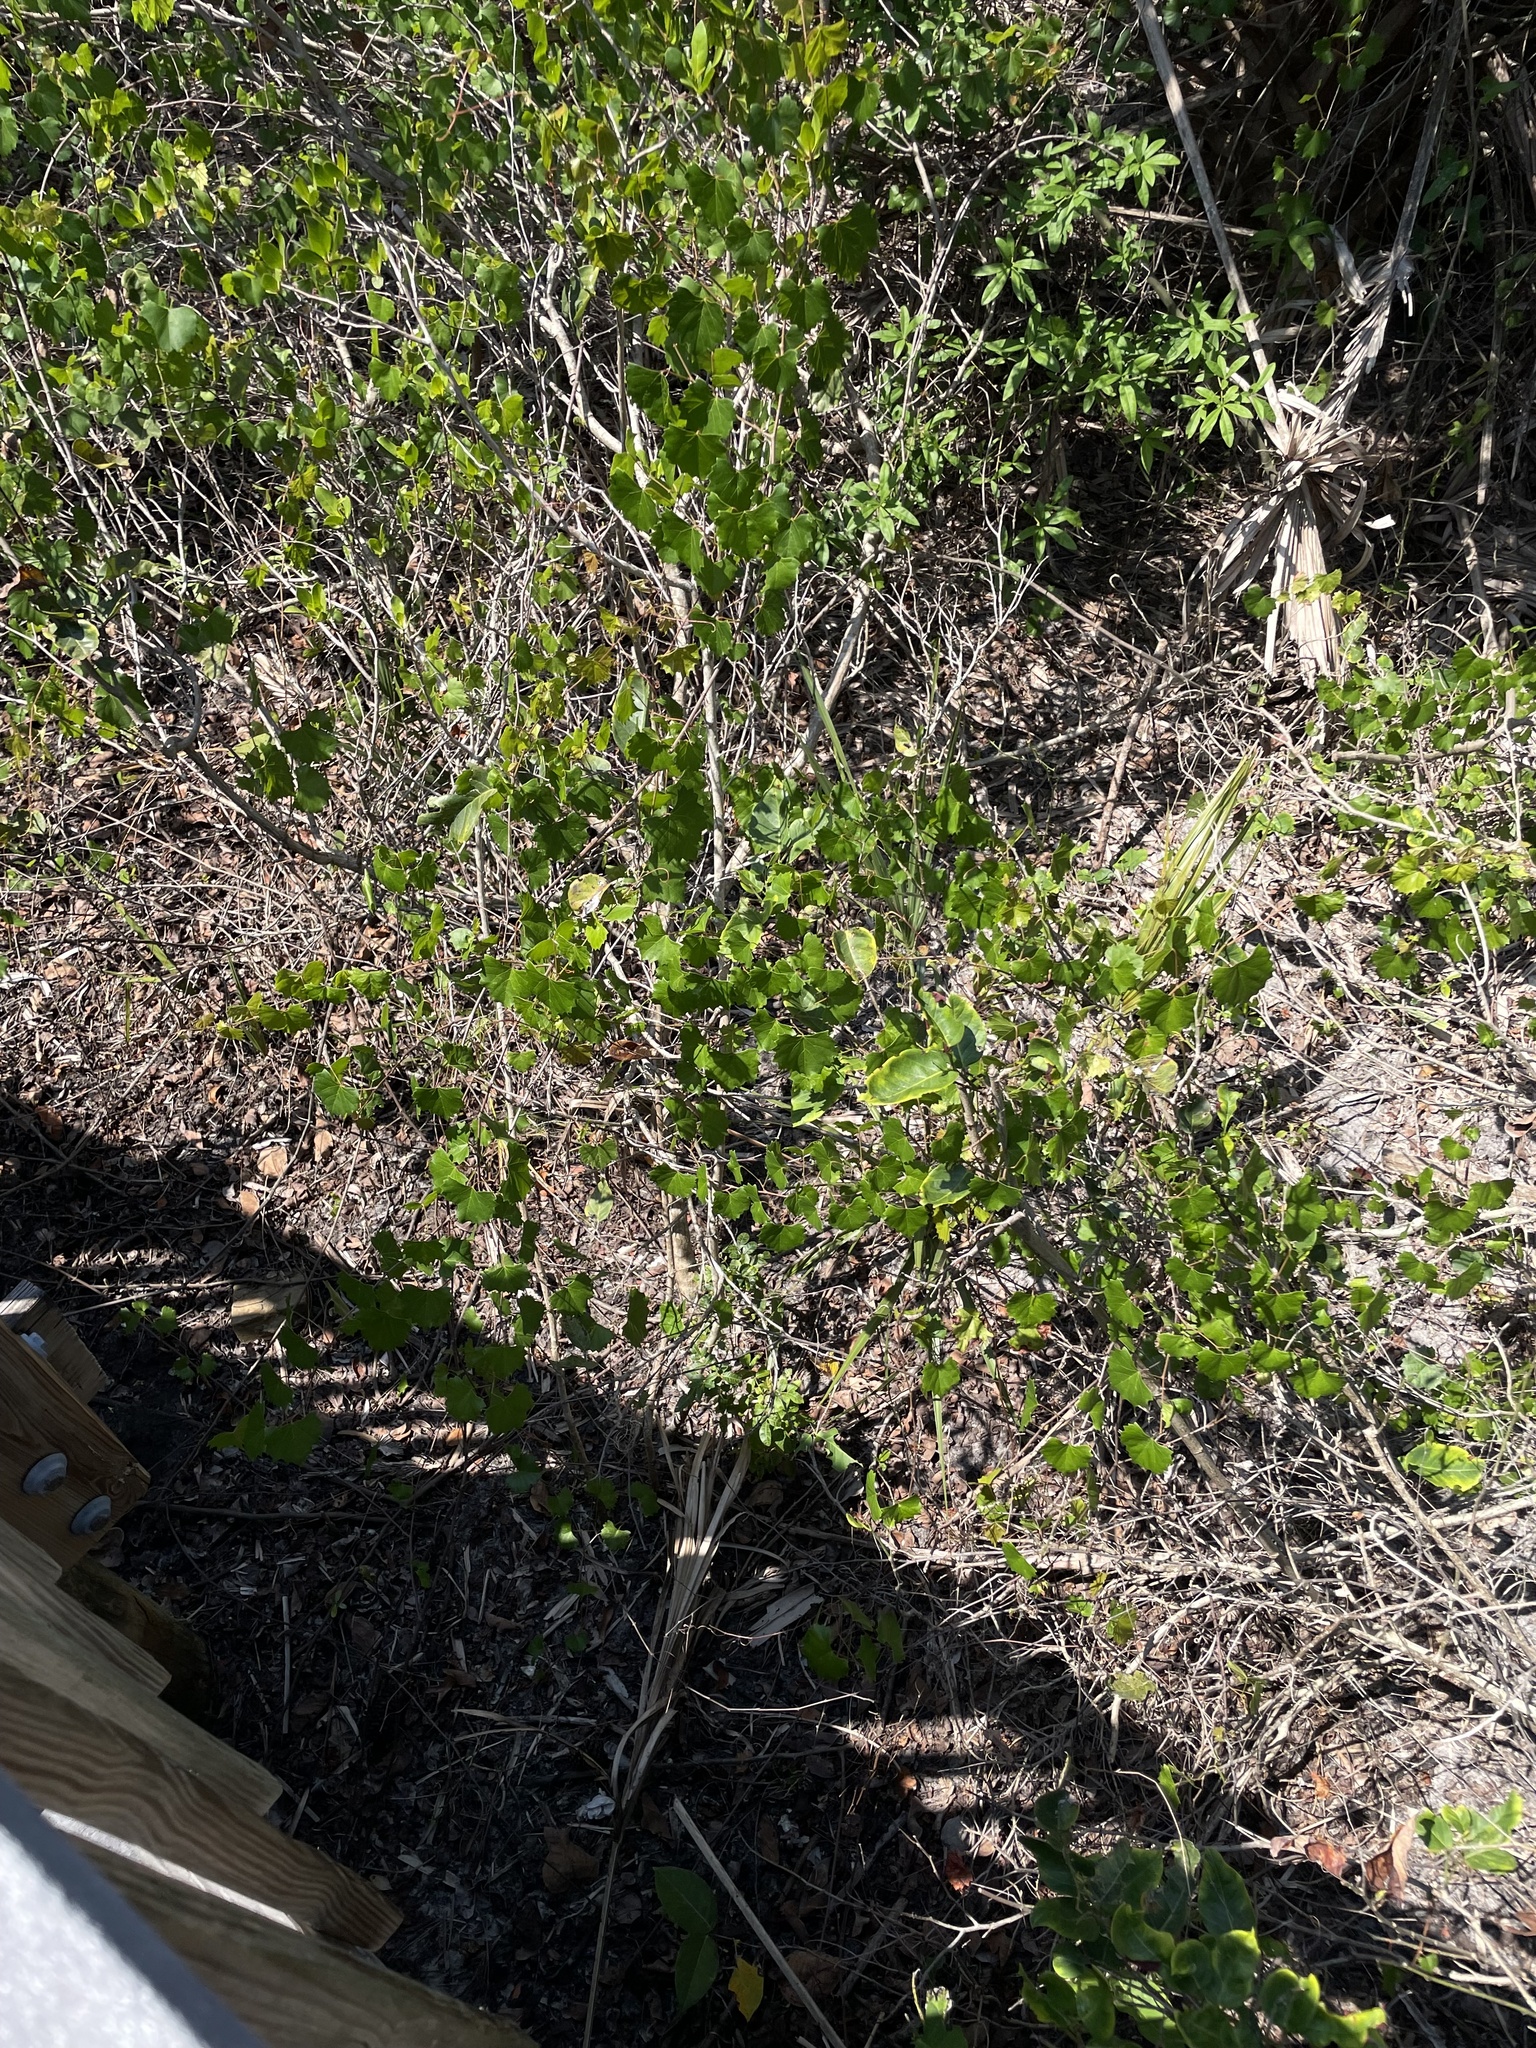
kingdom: Plantae
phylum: Tracheophyta
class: Magnoliopsida
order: Vitales
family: Vitaceae
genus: Vitis
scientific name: Vitis rotundifolia
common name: Muscadine grape
